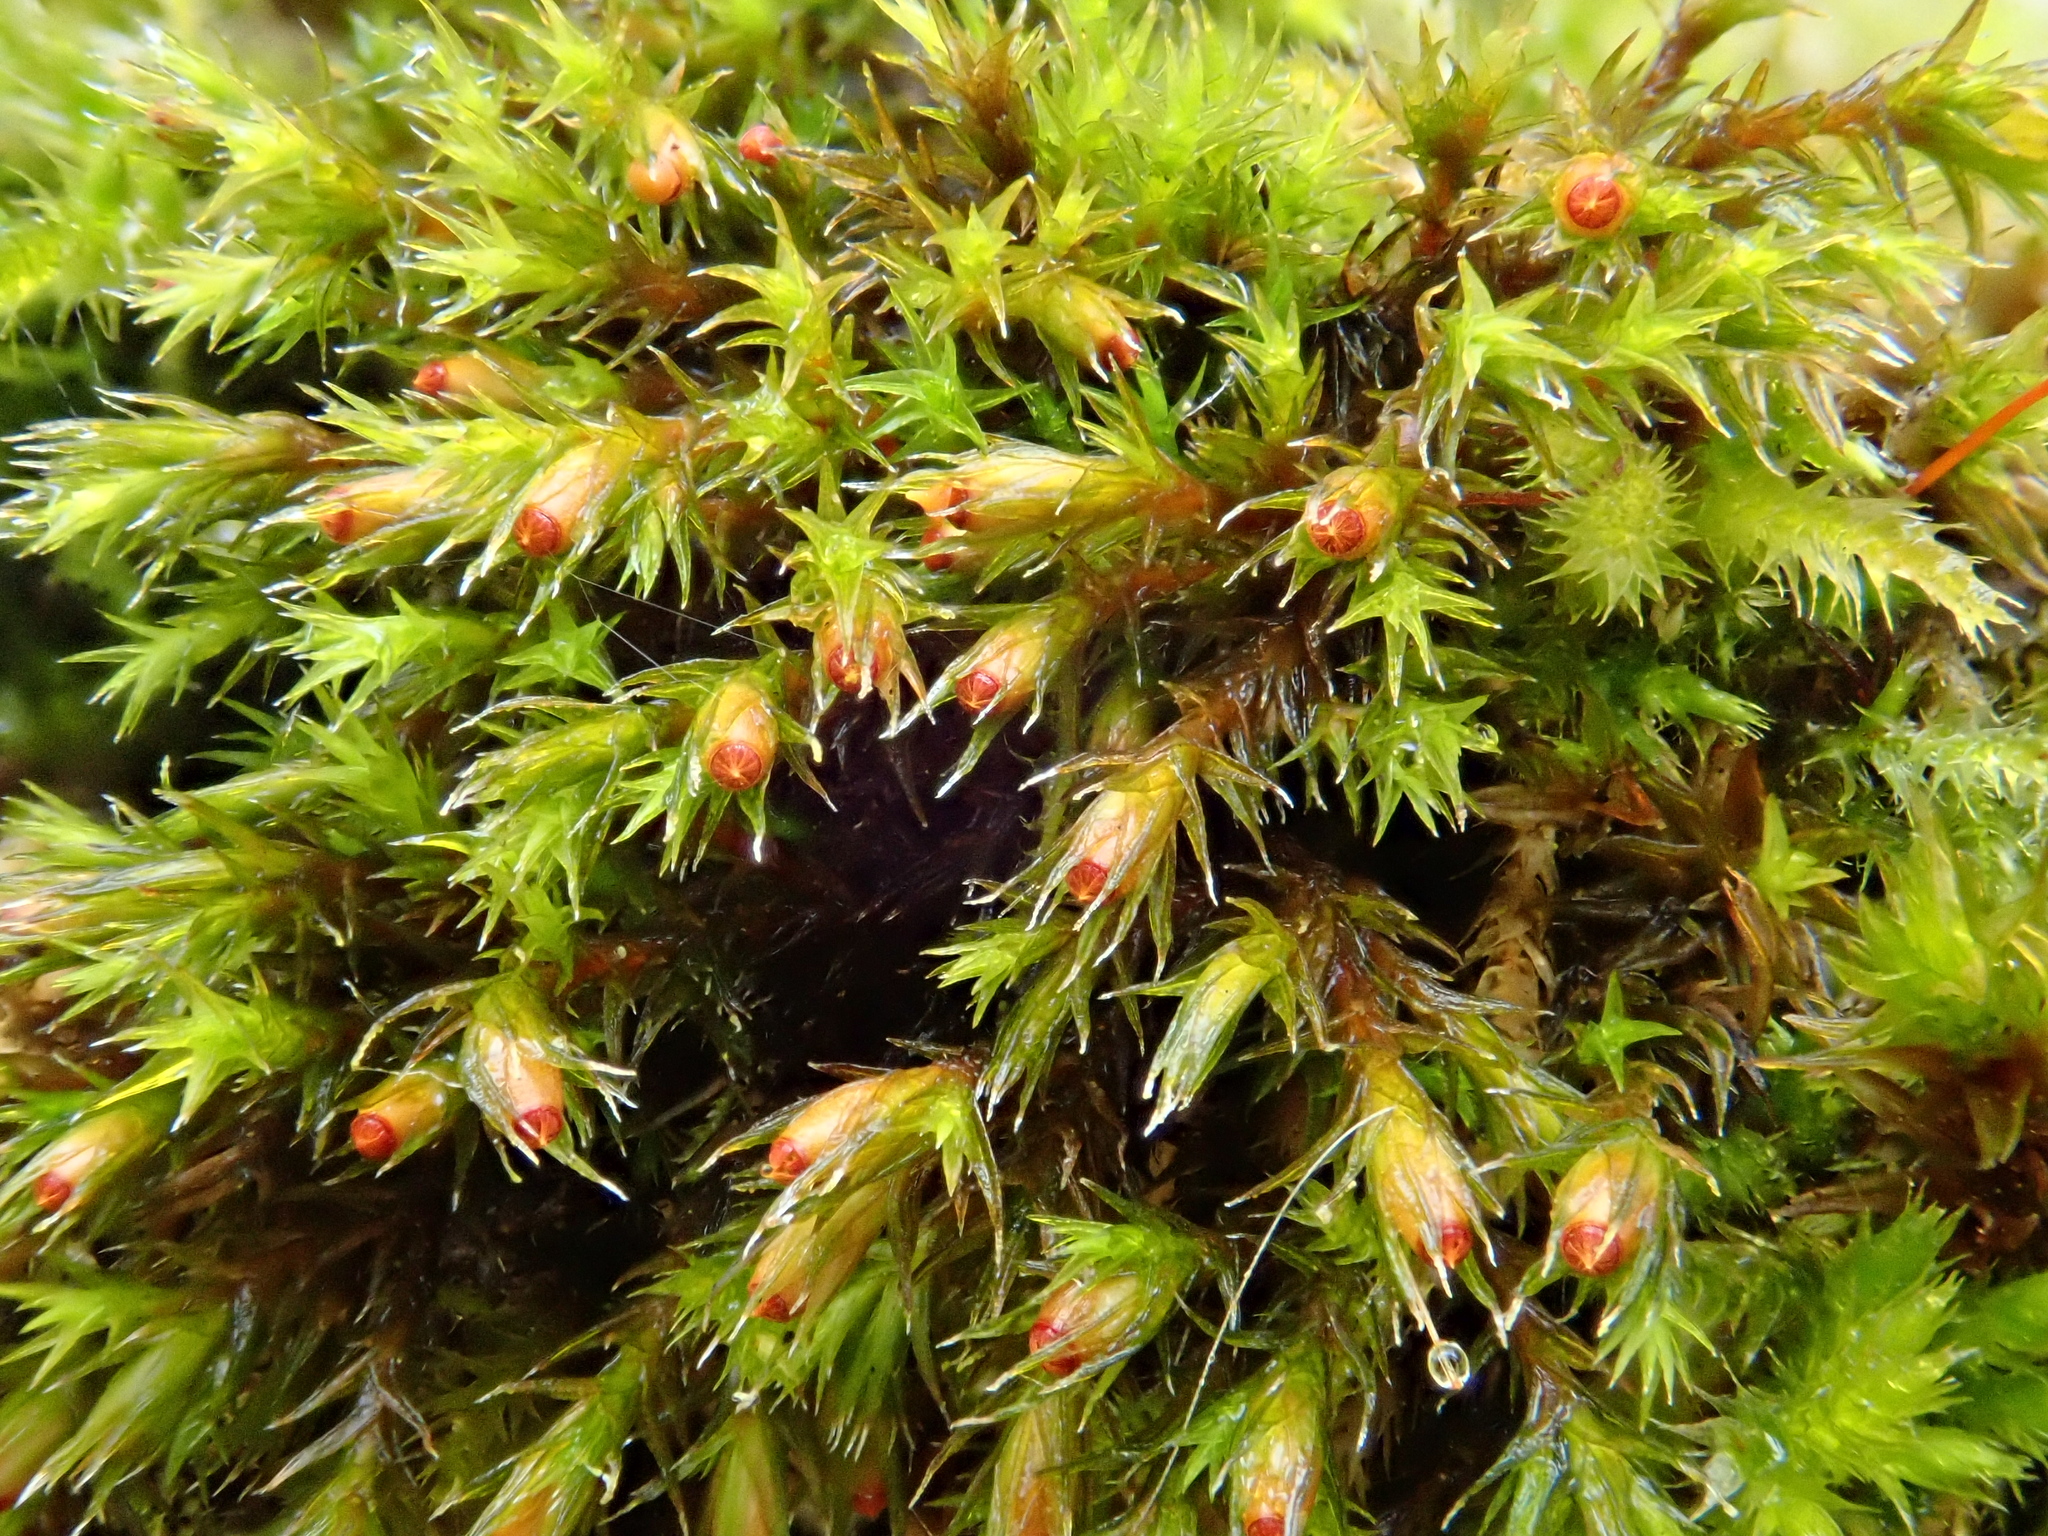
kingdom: Plantae
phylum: Bryophyta
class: Bryopsida
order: Grimmiales
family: Grimmiaceae
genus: Schistidium
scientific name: Schistidium crassipilum
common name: Thickpoint bloom moss
